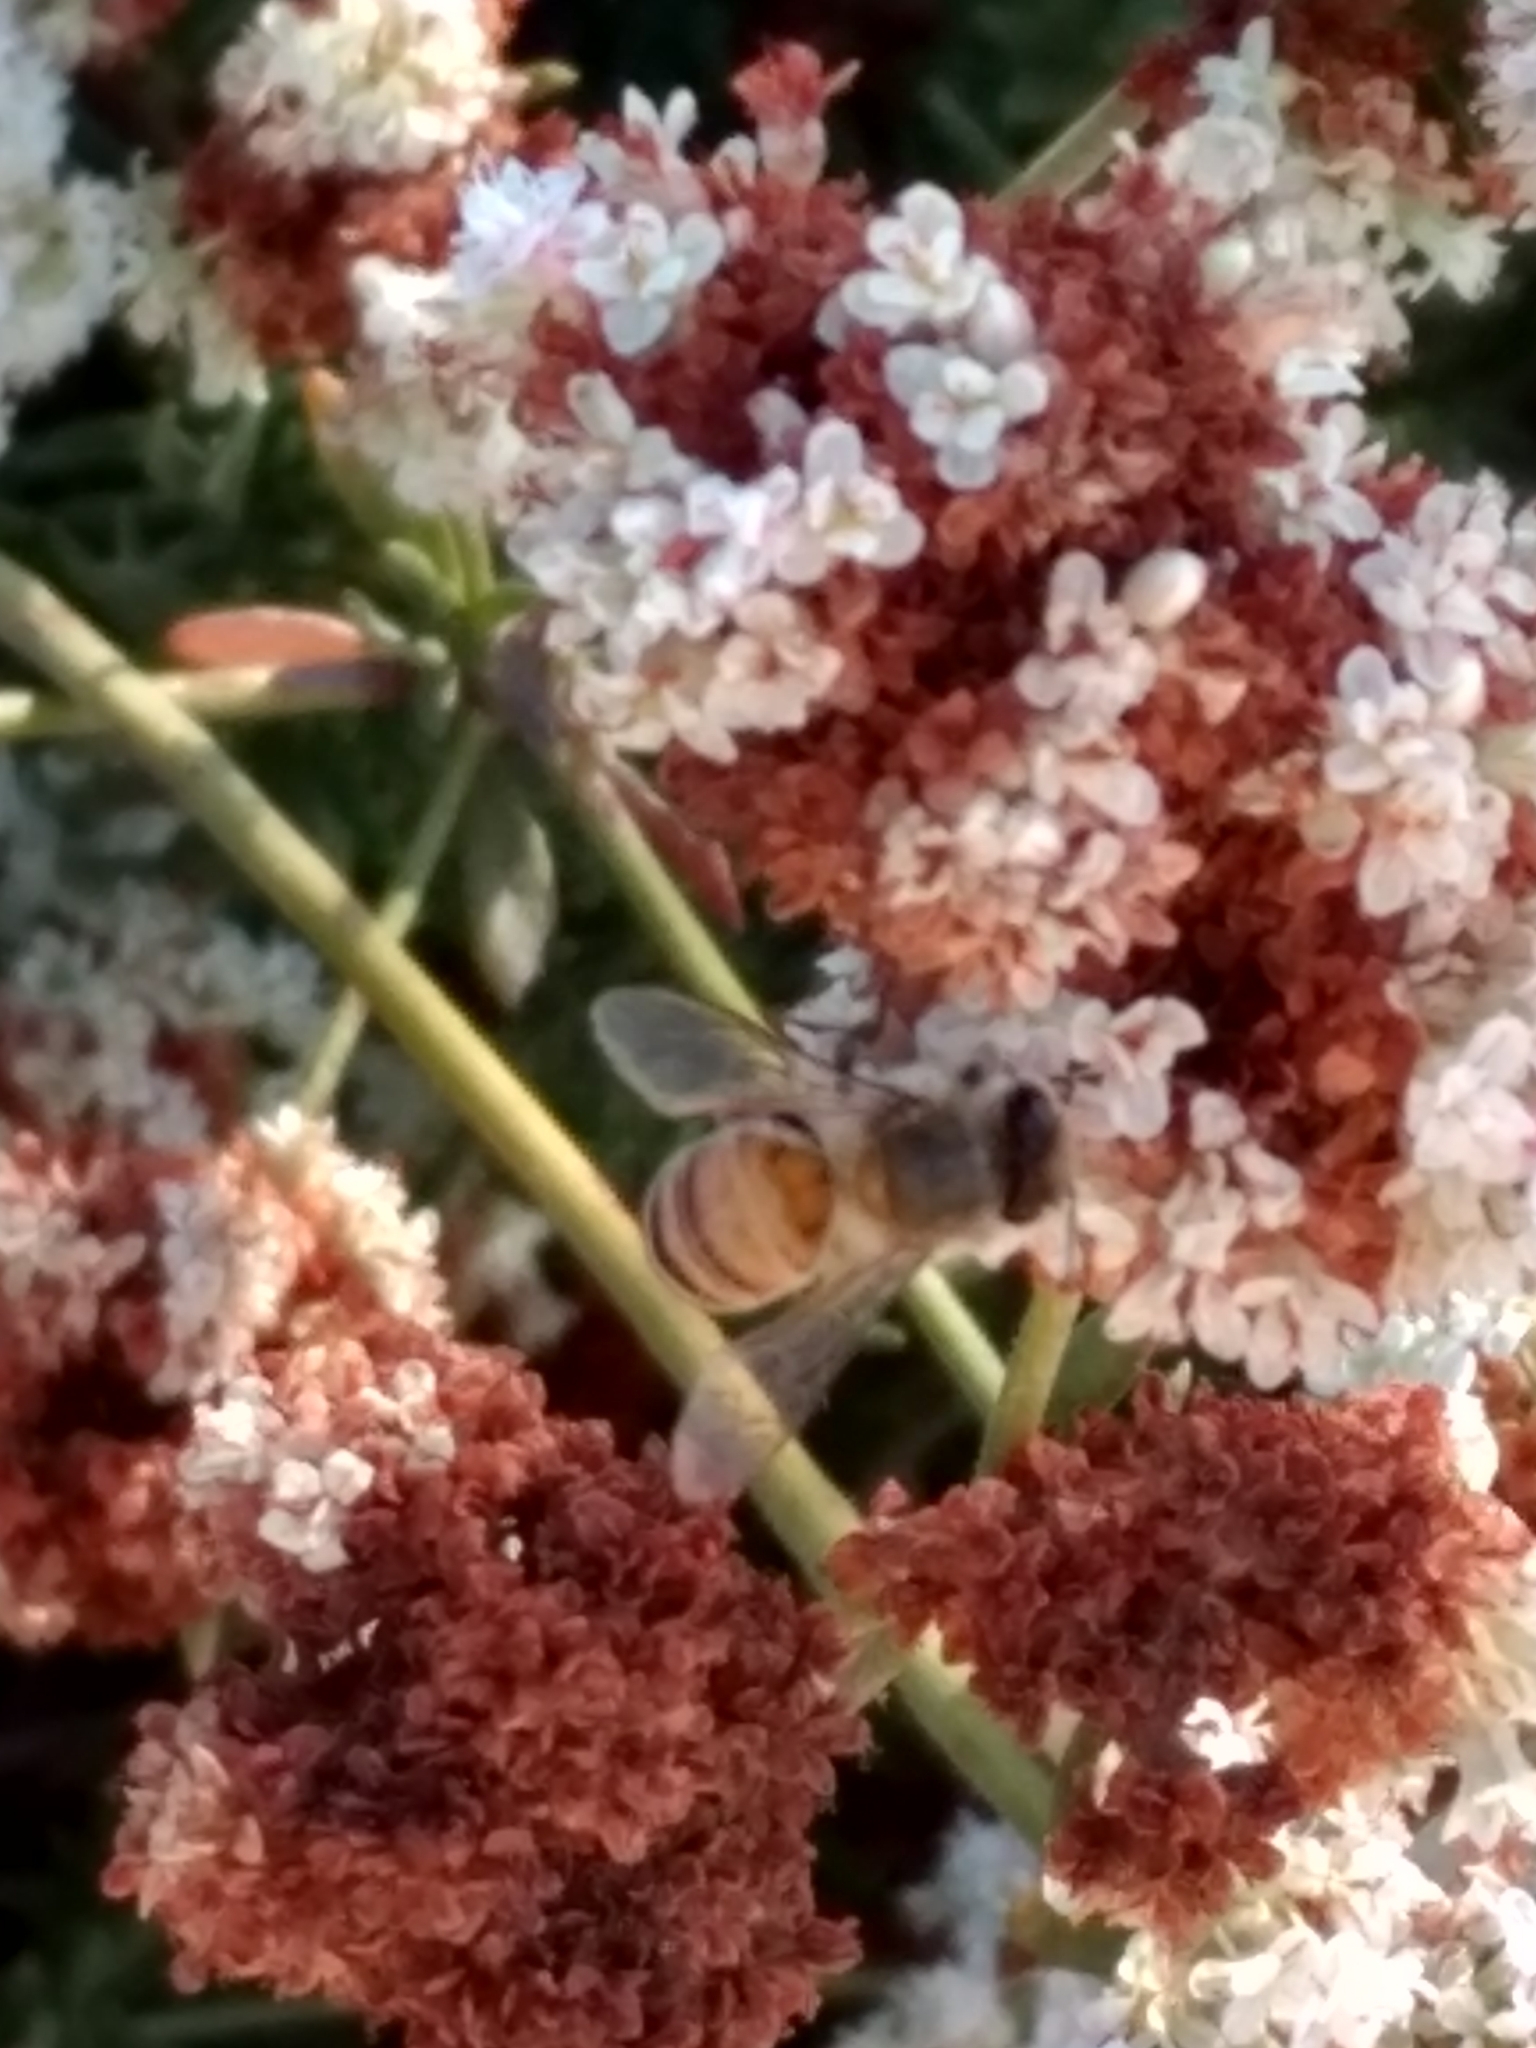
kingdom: Animalia
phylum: Arthropoda
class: Insecta
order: Hymenoptera
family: Apidae
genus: Apis
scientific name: Apis mellifera
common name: Honey bee
